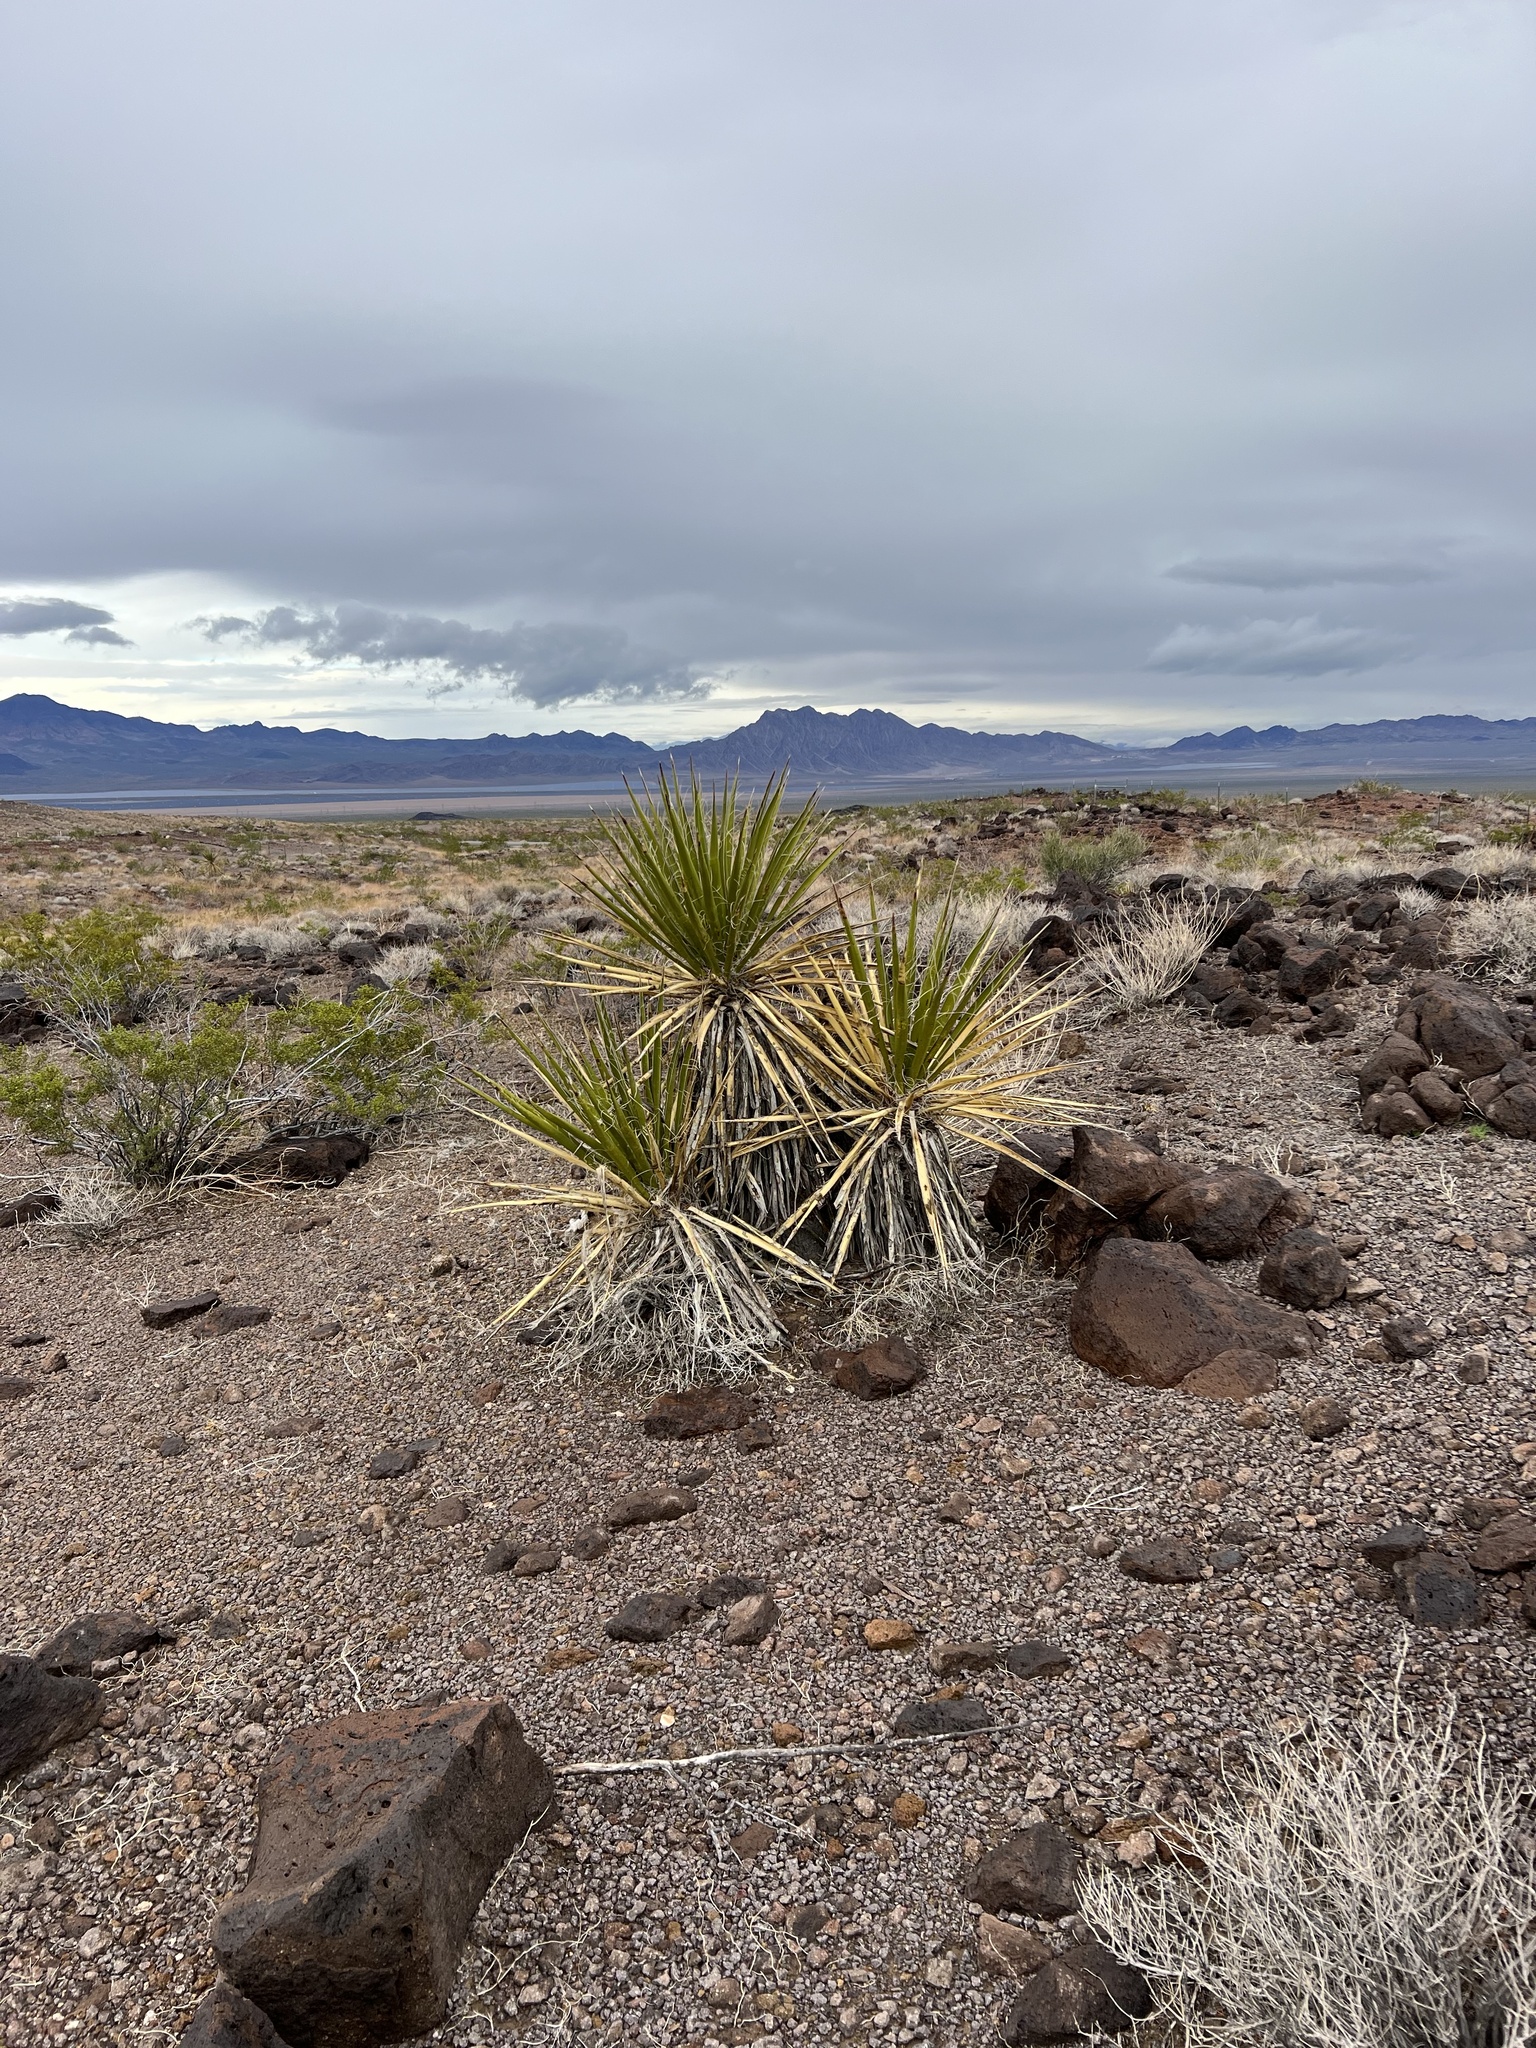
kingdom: Plantae
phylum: Tracheophyta
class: Liliopsida
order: Asparagales
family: Asparagaceae
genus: Yucca
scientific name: Yucca schidigera
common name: Mojave yucca
